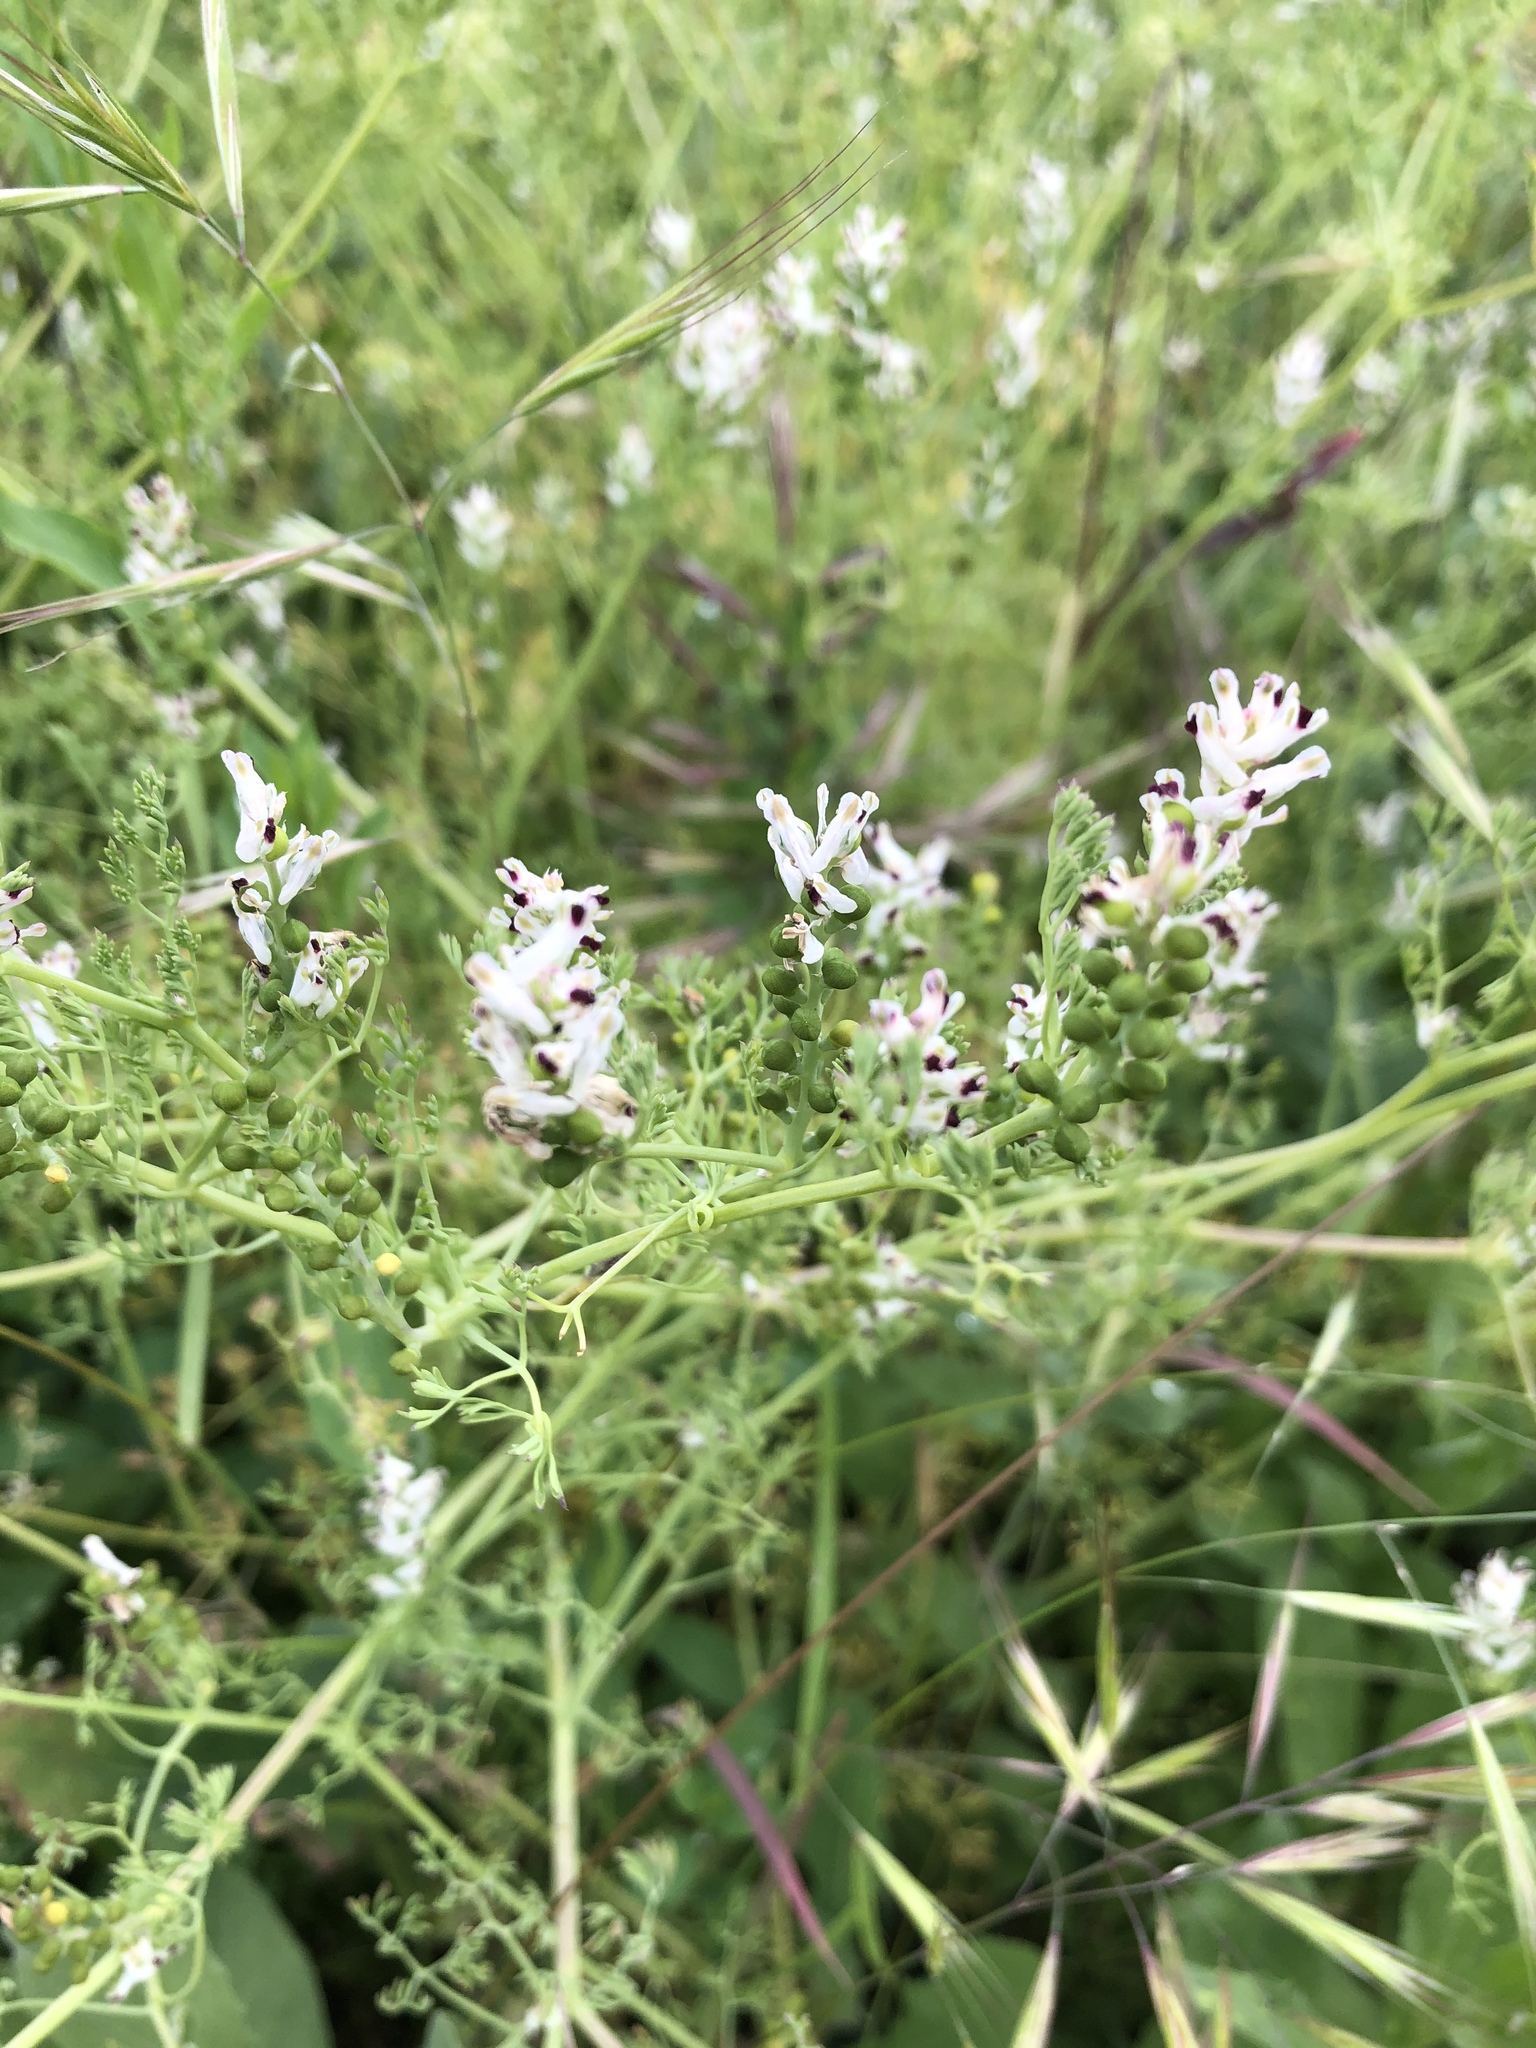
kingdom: Plantae
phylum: Tracheophyta
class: Magnoliopsida
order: Ranunculales
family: Papaveraceae
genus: Fumaria
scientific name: Fumaria parviflora
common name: Fine-leaved fumitory
